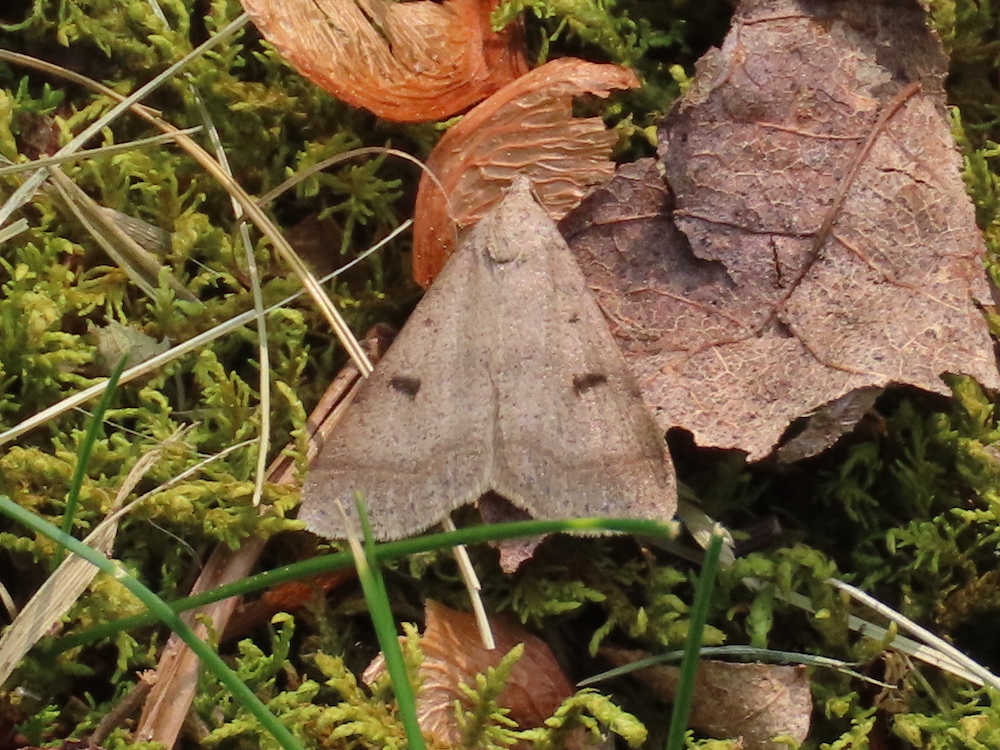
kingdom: Animalia
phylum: Arthropoda
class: Insecta
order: Lepidoptera
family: Erebidae
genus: Bleptina
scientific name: Bleptina caradrinalis
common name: Bent-winged owlet
